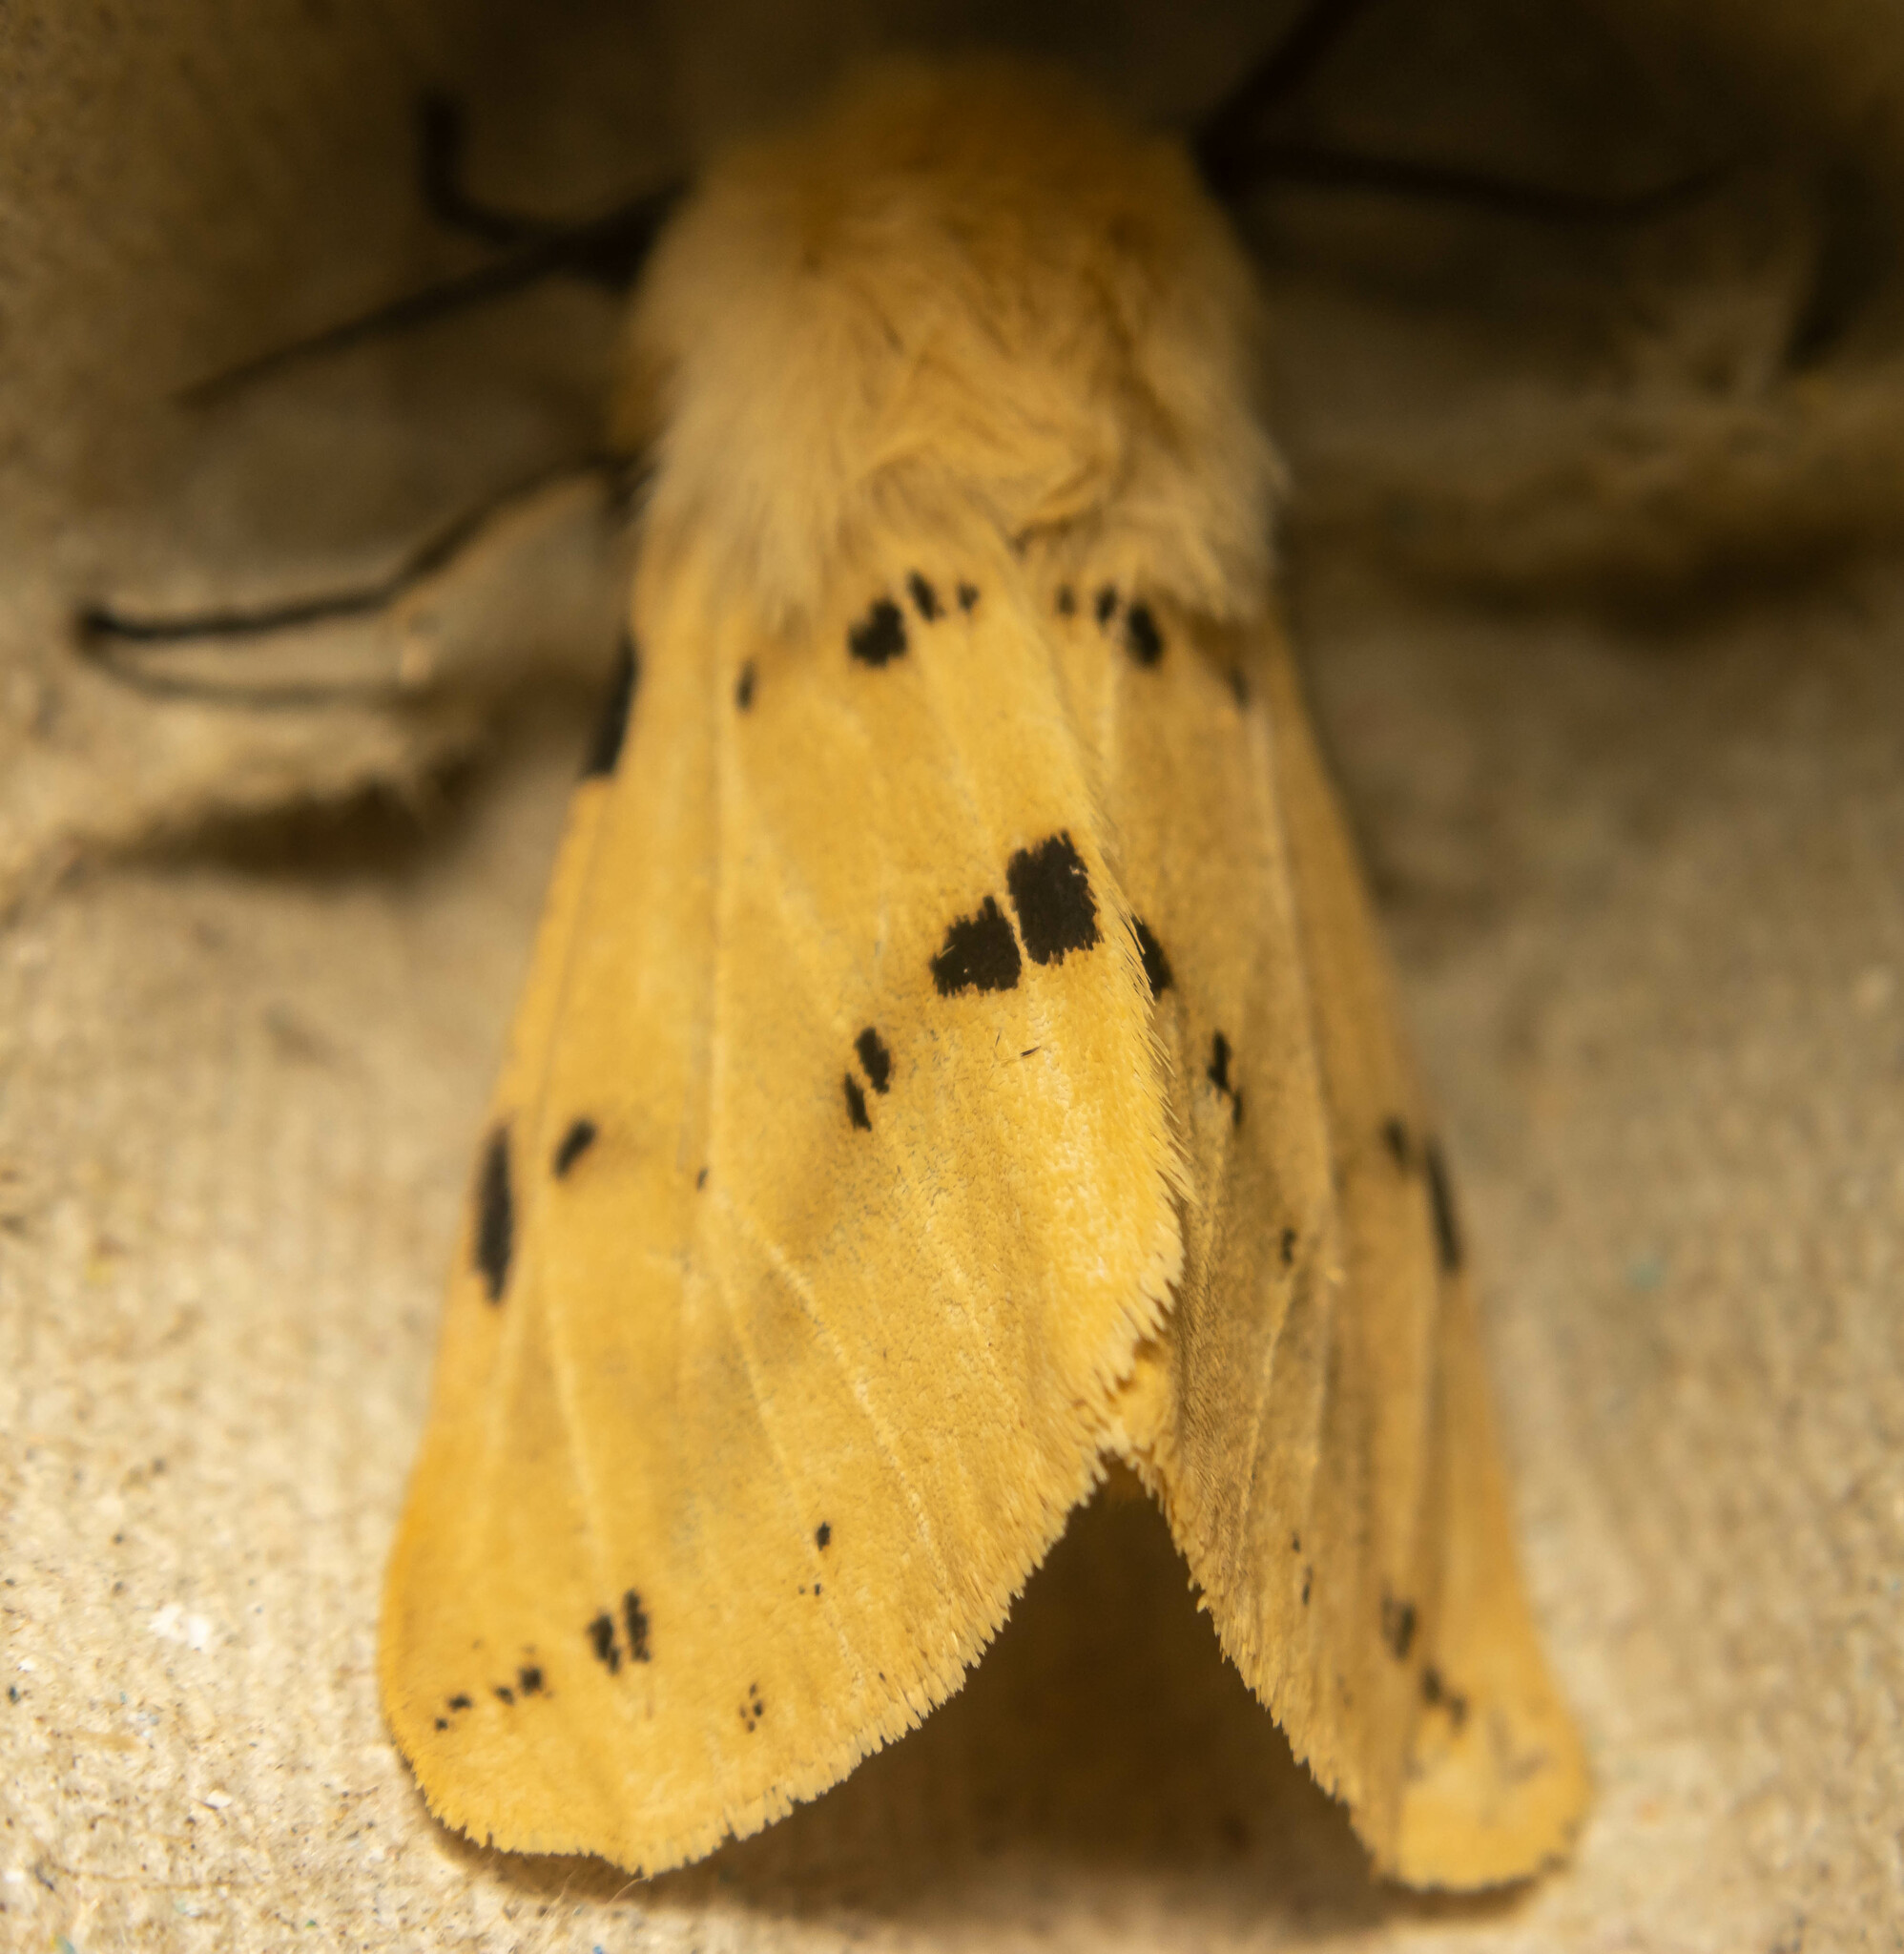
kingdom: Animalia
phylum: Arthropoda
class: Insecta
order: Lepidoptera
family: Erebidae
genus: Spilarctia
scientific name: Spilarctia lutea
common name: Buff ermine
